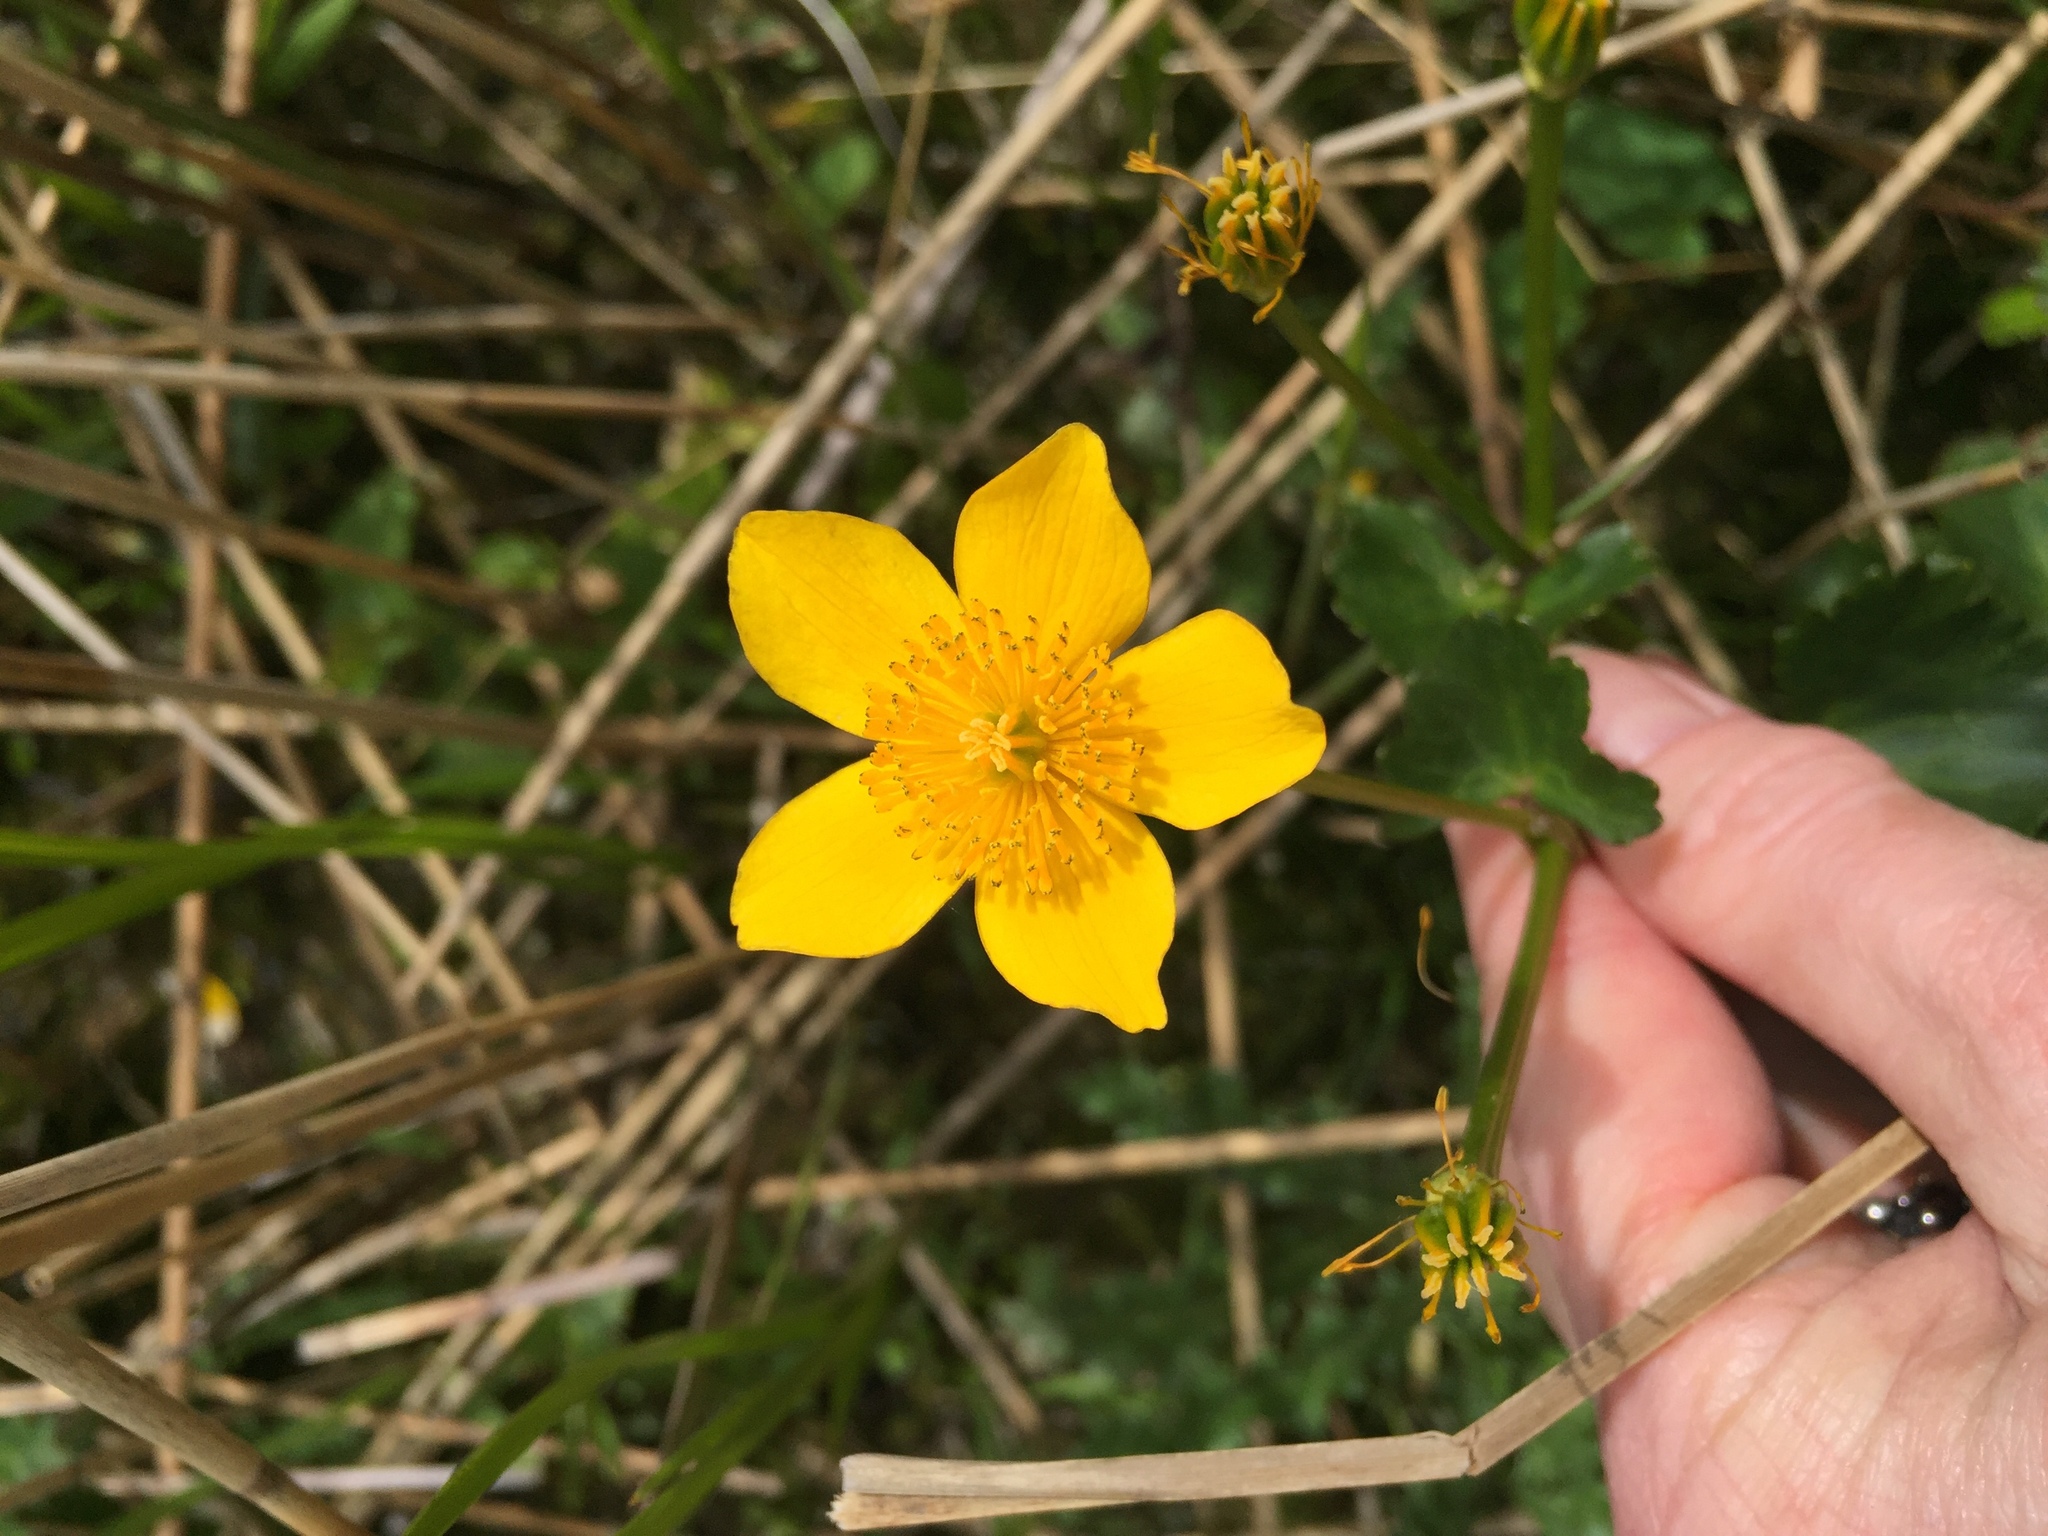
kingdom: Plantae
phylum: Tracheophyta
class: Magnoliopsida
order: Ranunculales
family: Ranunculaceae
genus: Caltha
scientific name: Caltha palustris
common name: Marsh marigold
